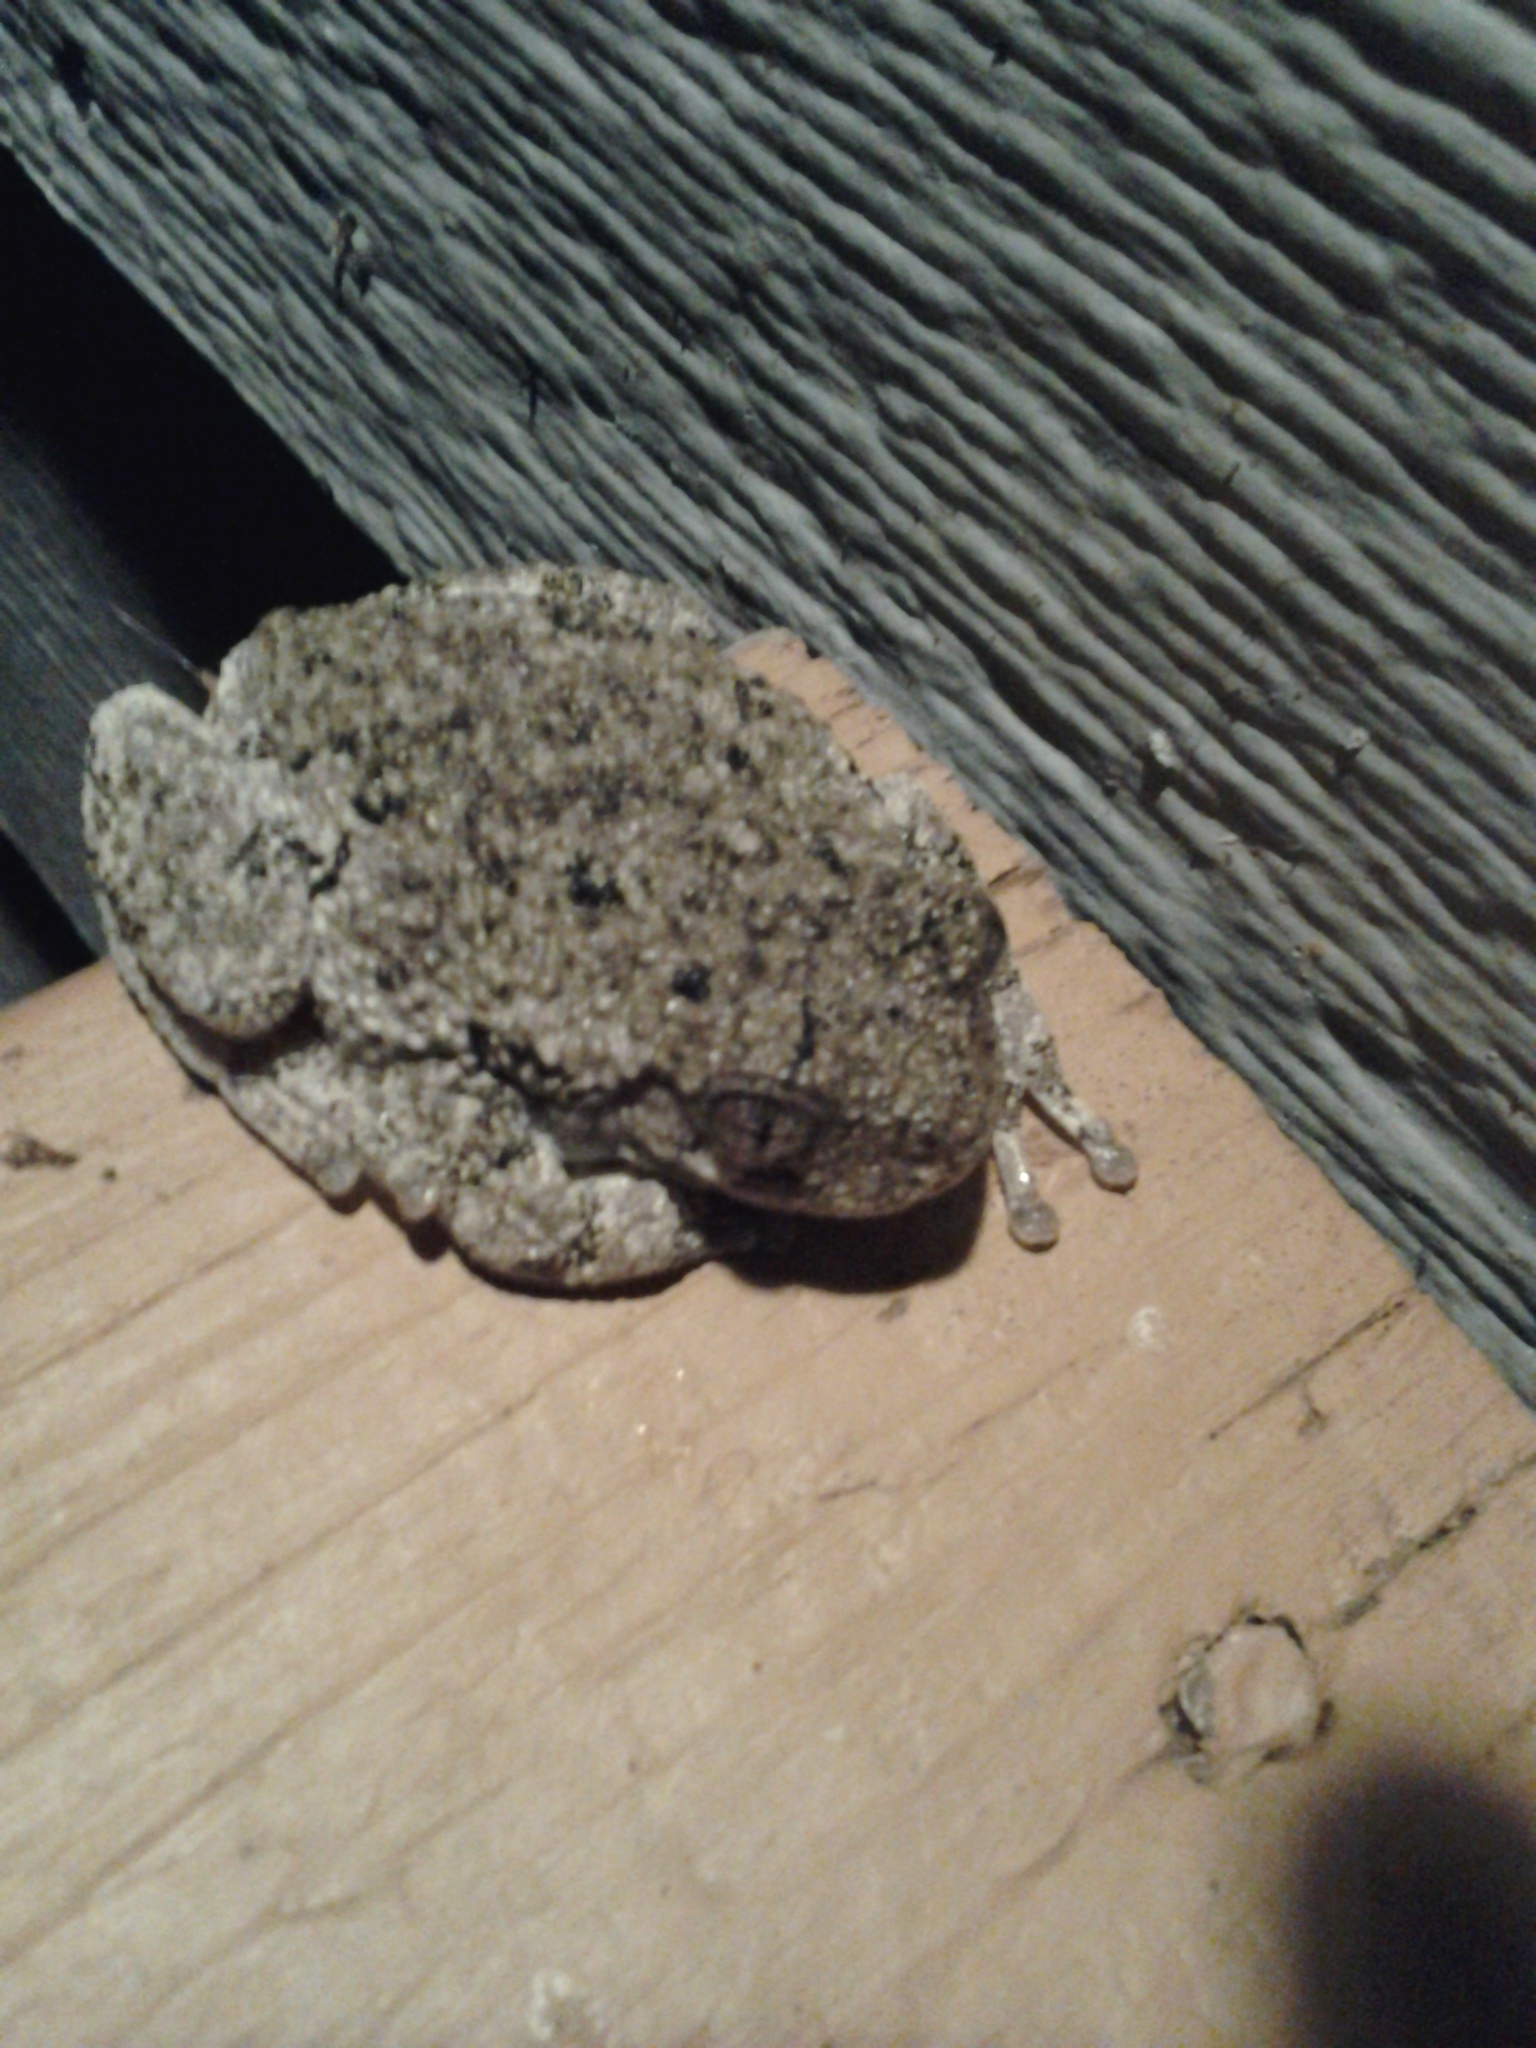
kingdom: Animalia
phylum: Chordata
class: Amphibia
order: Anura
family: Hylidae
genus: Dryophytes
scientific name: Dryophytes versicolor
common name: Gray treefrog
